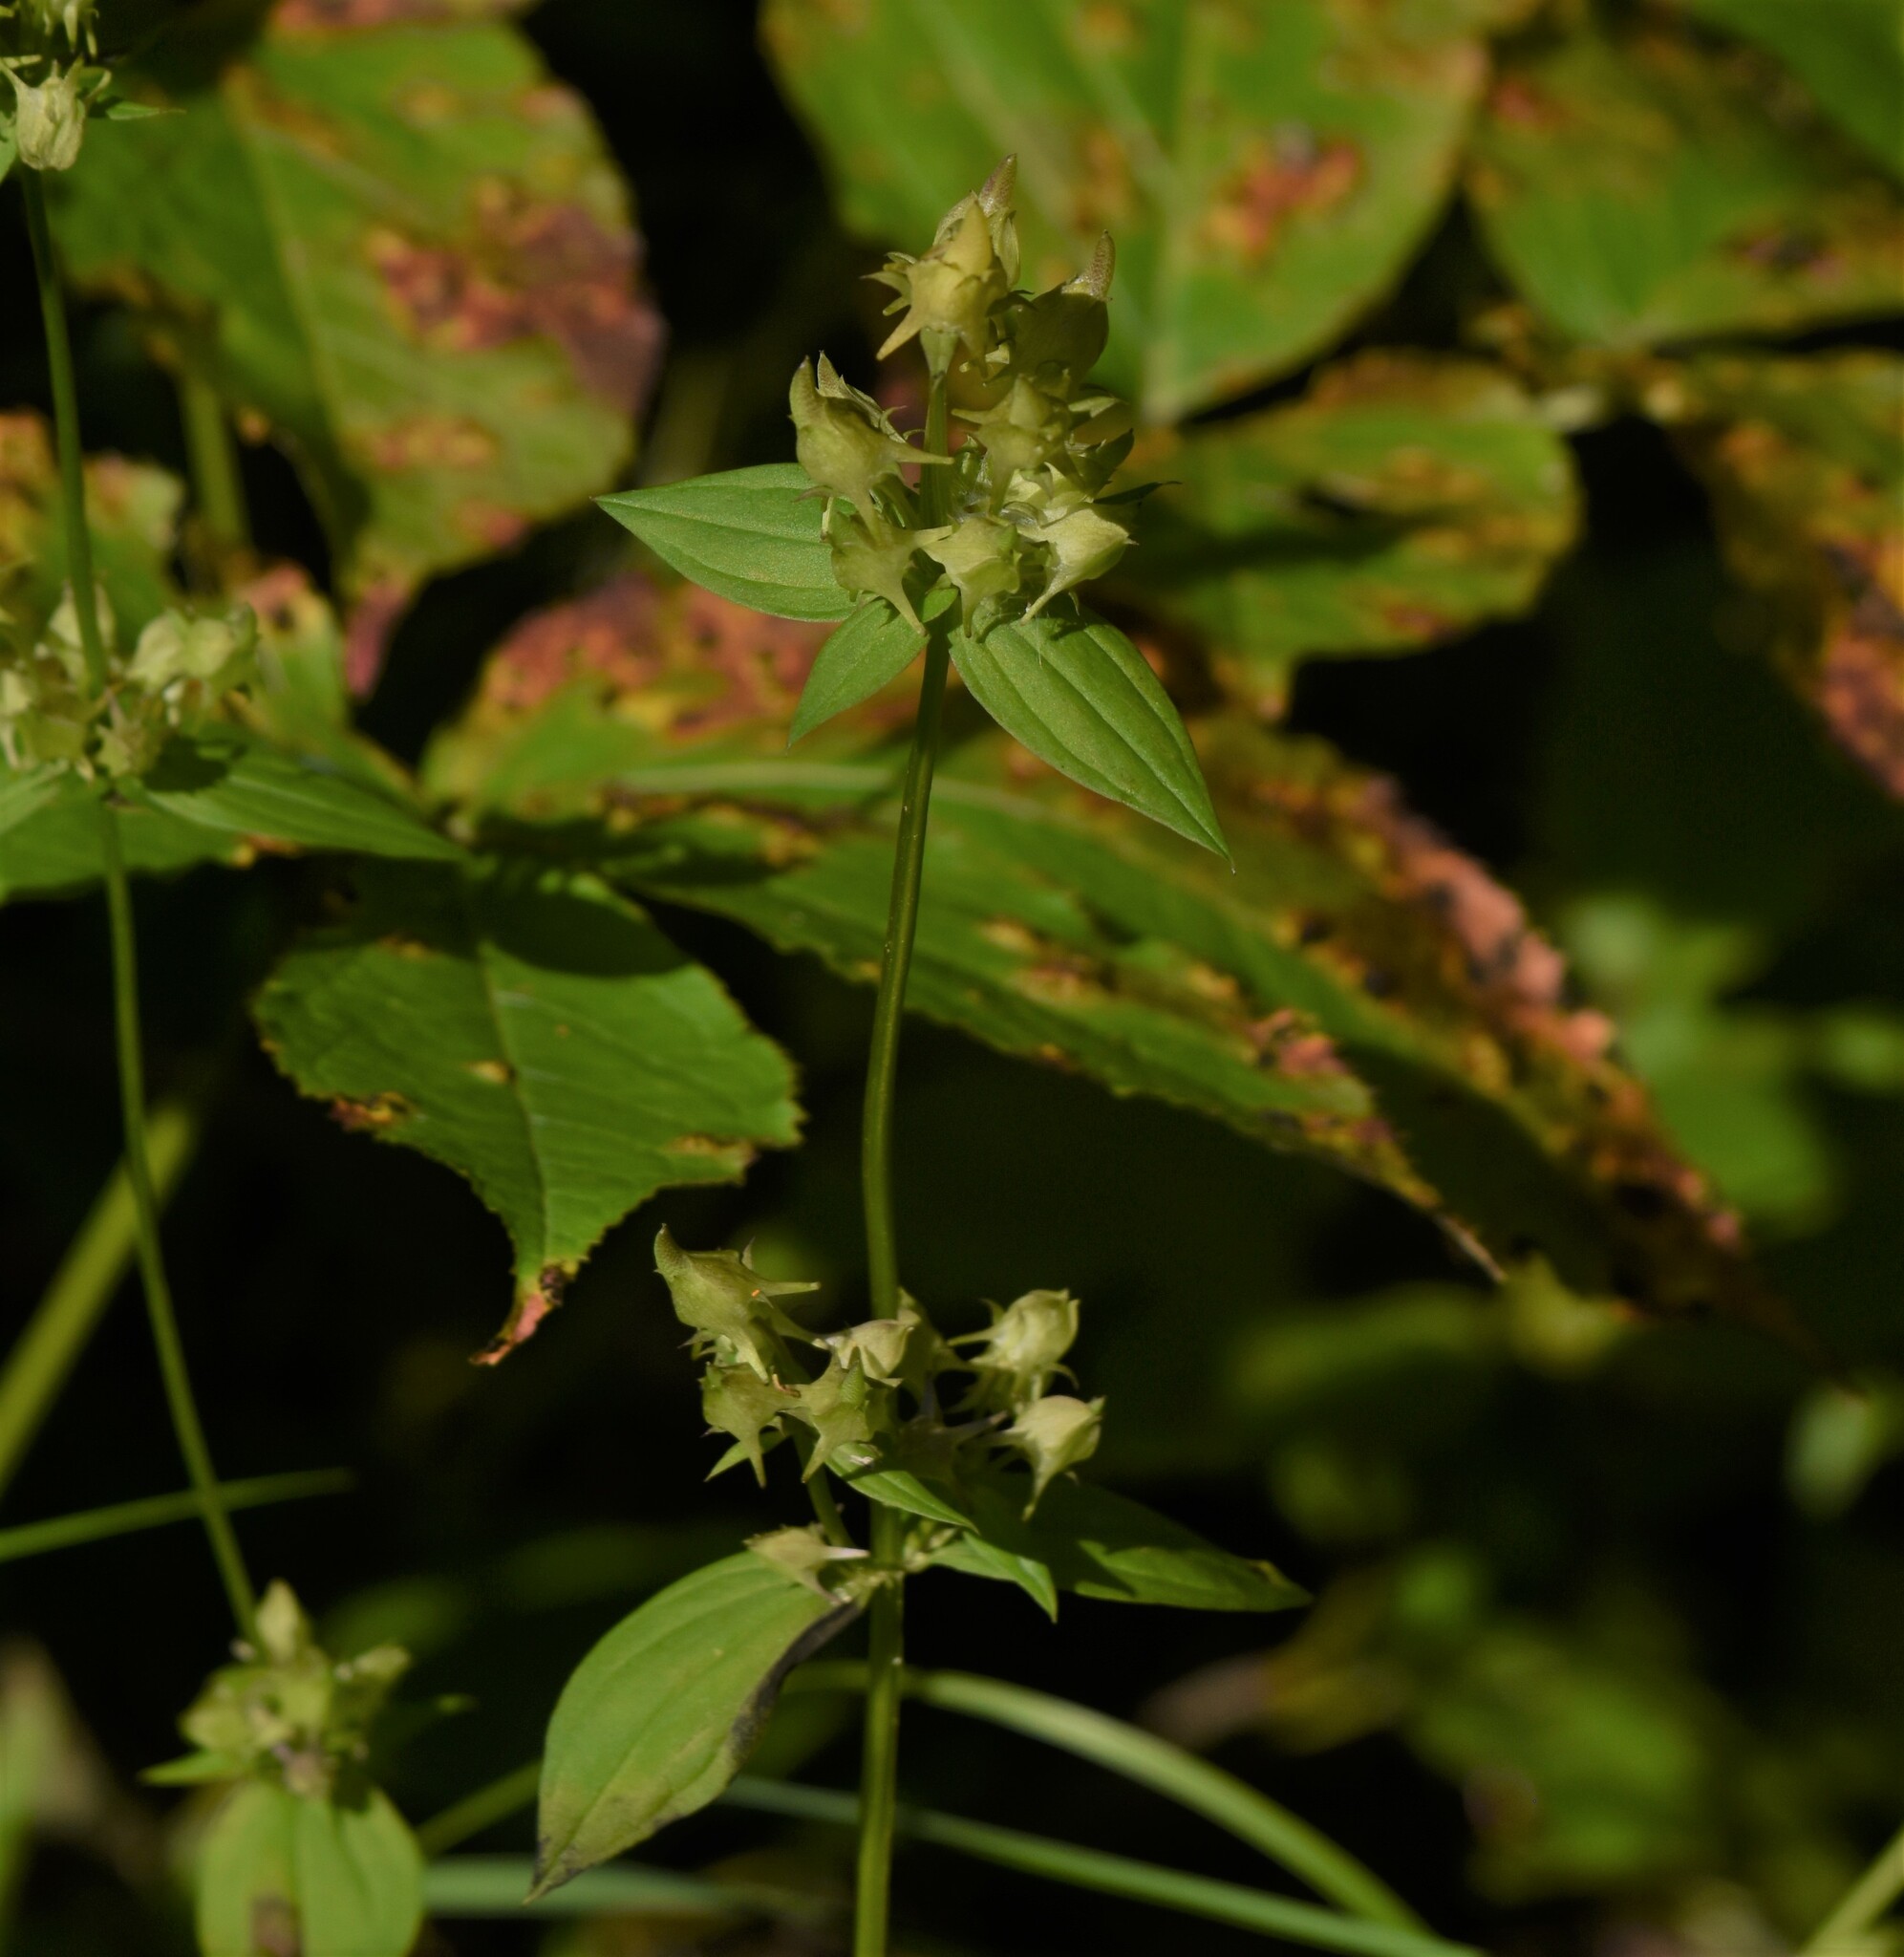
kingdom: Plantae
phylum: Tracheophyta
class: Magnoliopsida
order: Gentianales
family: Gentianaceae
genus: Halenia
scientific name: Halenia deflexa
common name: American spurred gentian
